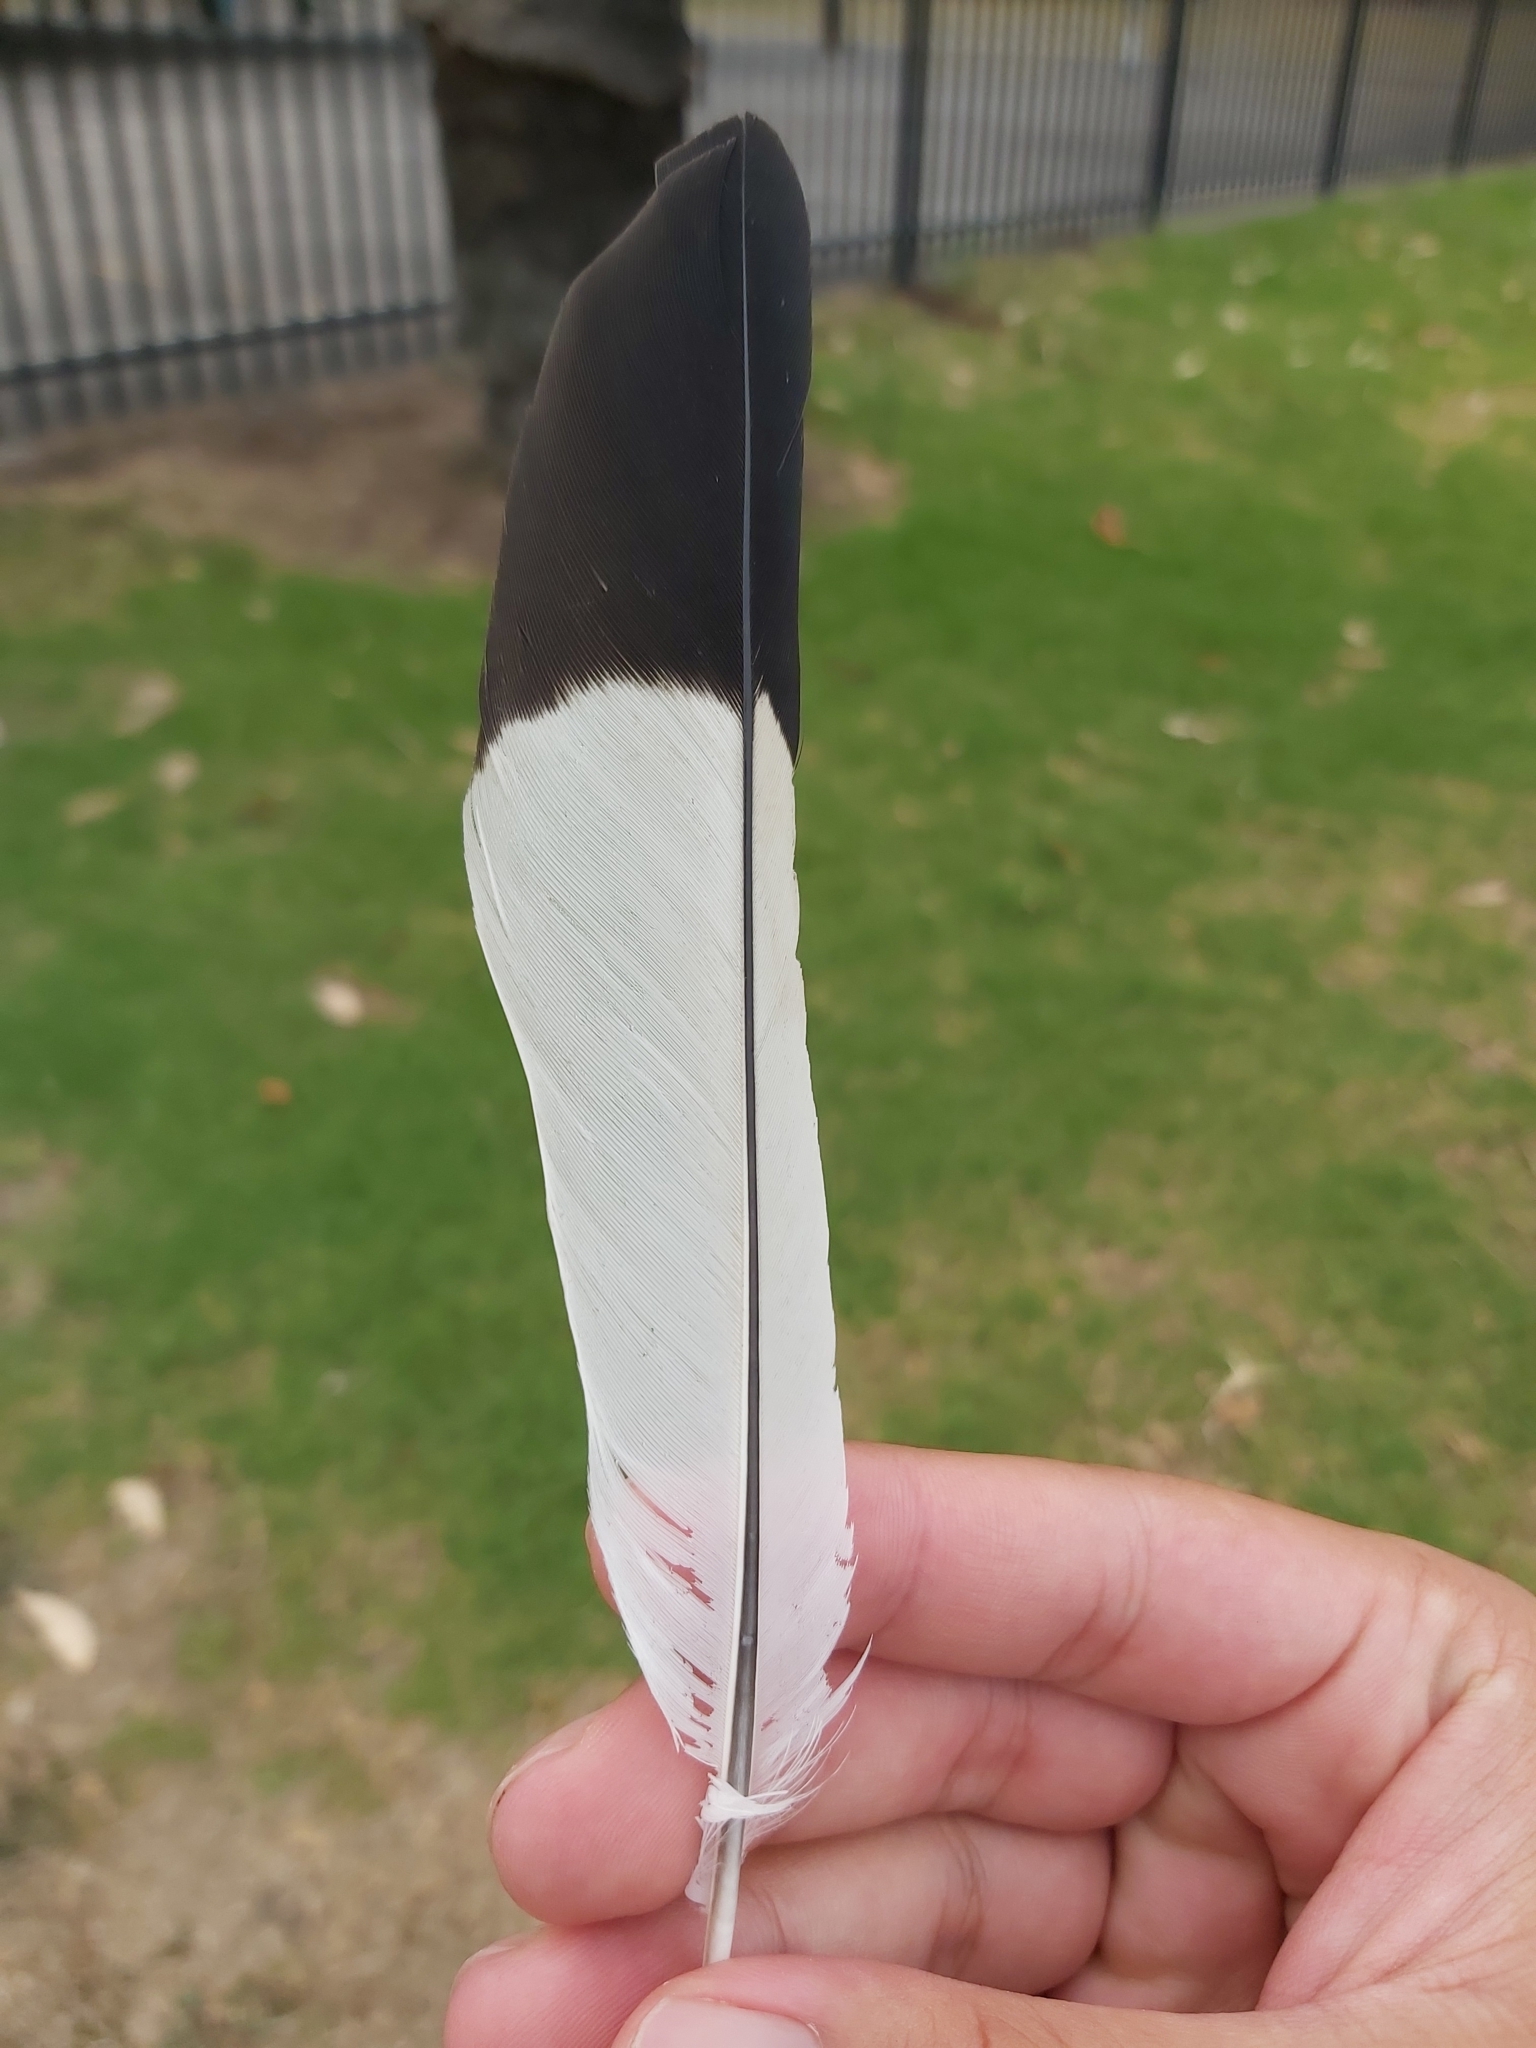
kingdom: Animalia
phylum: Chordata
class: Aves
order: Passeriformes
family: Cracticidae
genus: Gymnorhina
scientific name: Gymnorhina tibicen
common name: Australian magpie
